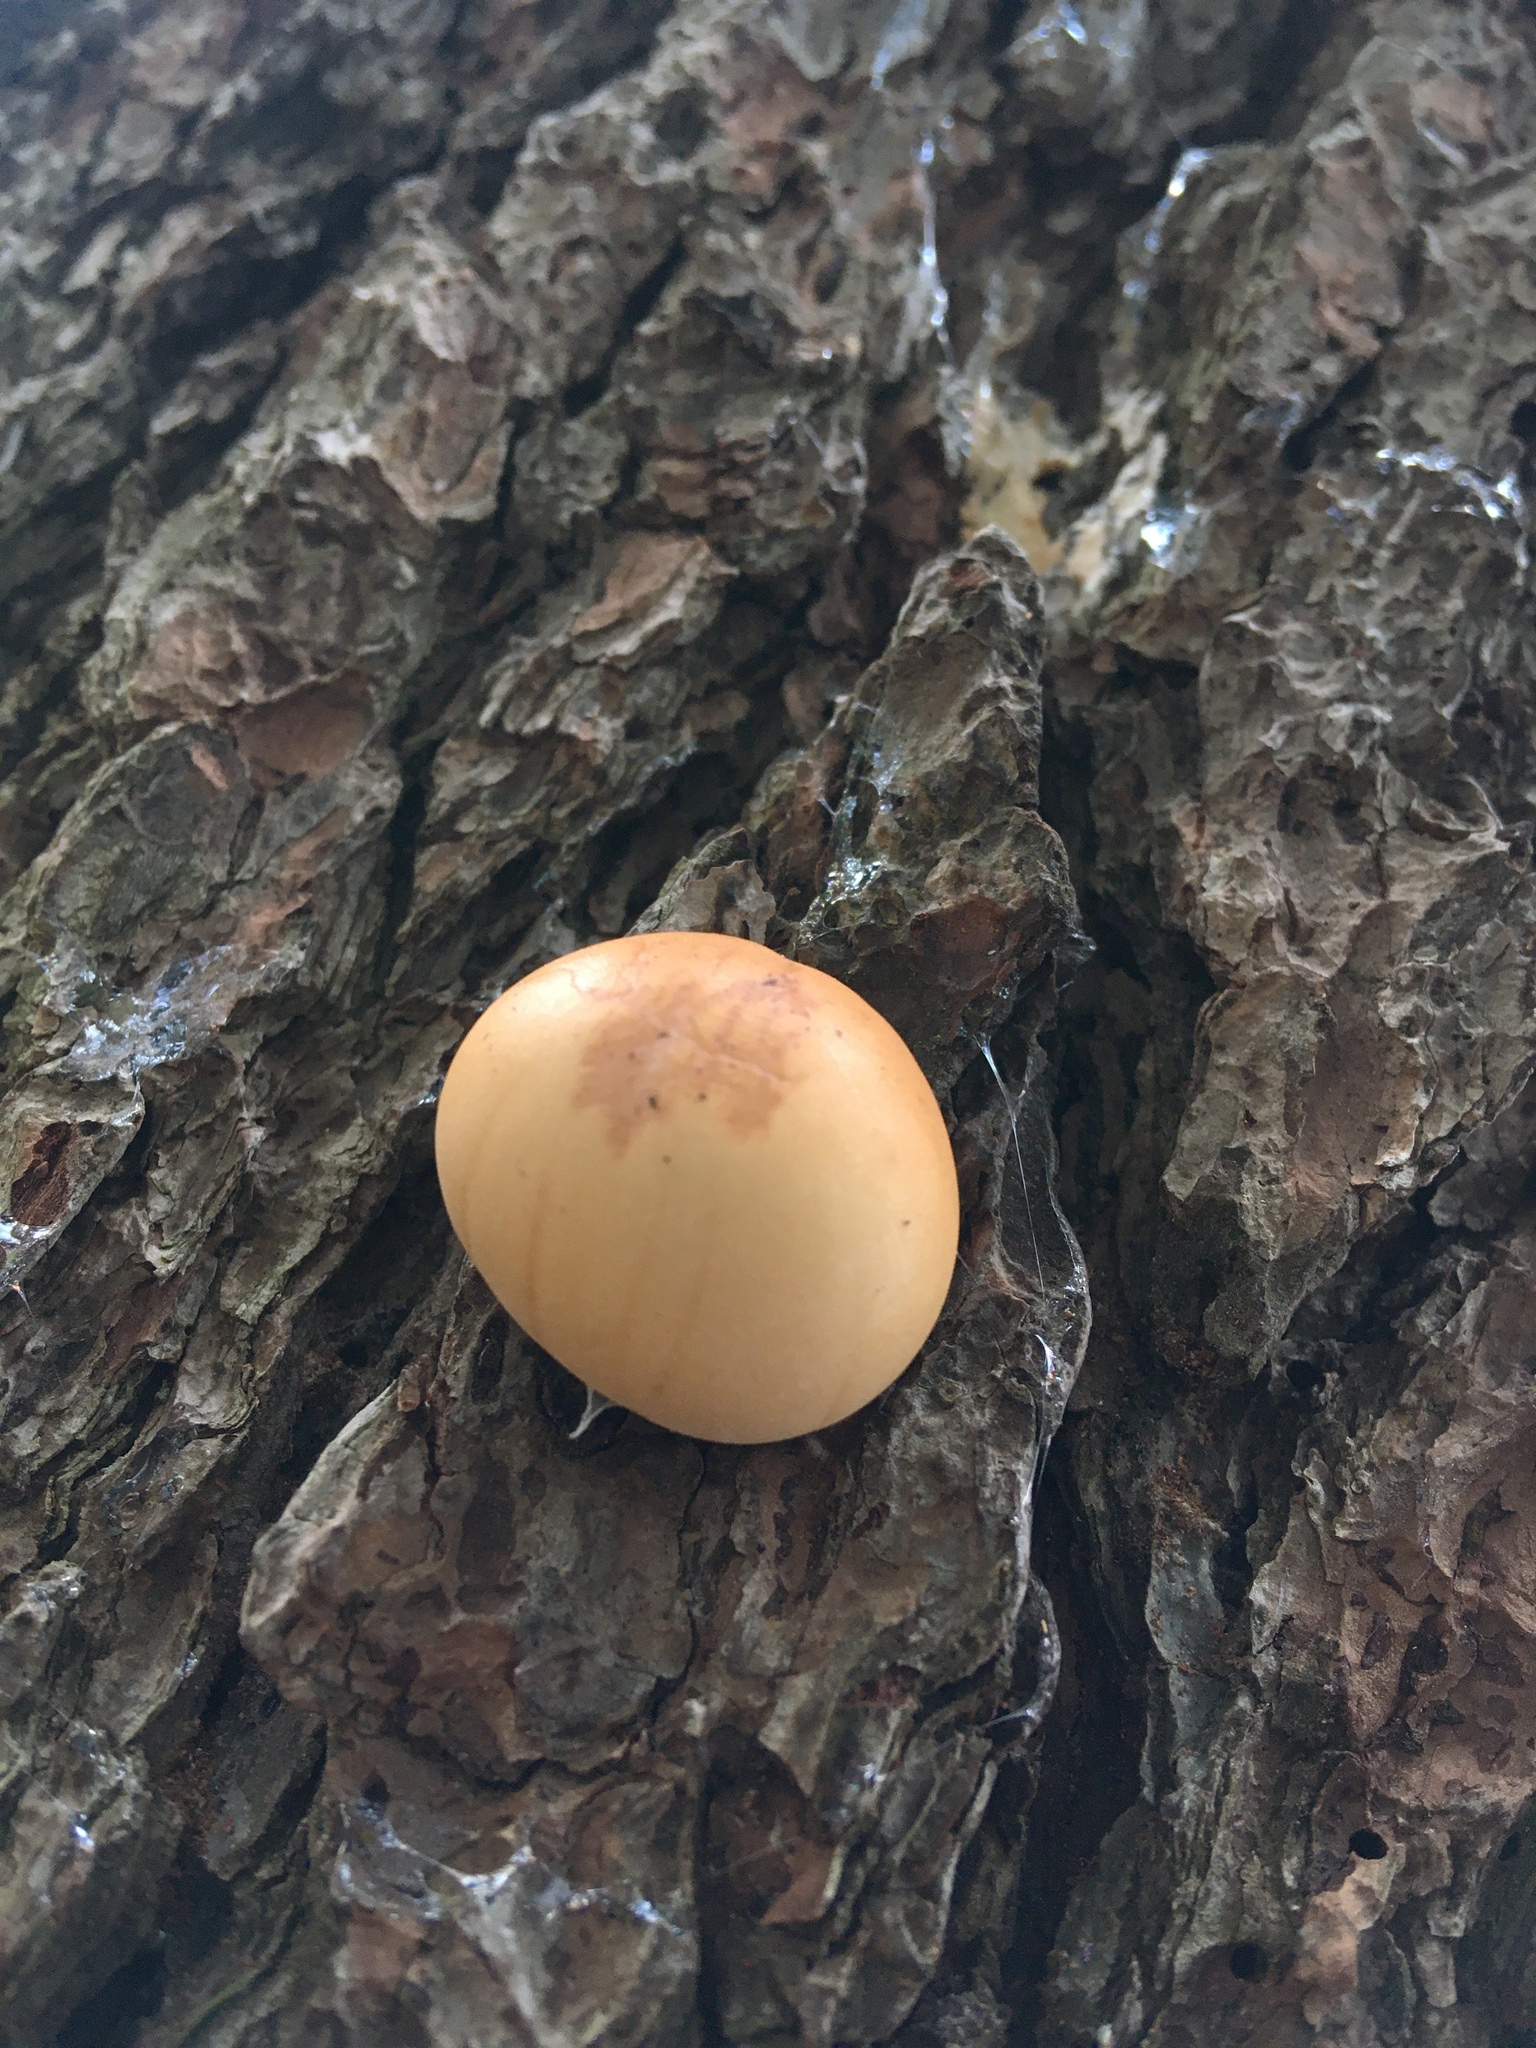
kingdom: Fungi
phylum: Basidiomycota
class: Agaricomycetes
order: Polyporales
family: Polyporaceae
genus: Cryptoporus
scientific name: Cryptoporus volvatus
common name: Veiled polypore
